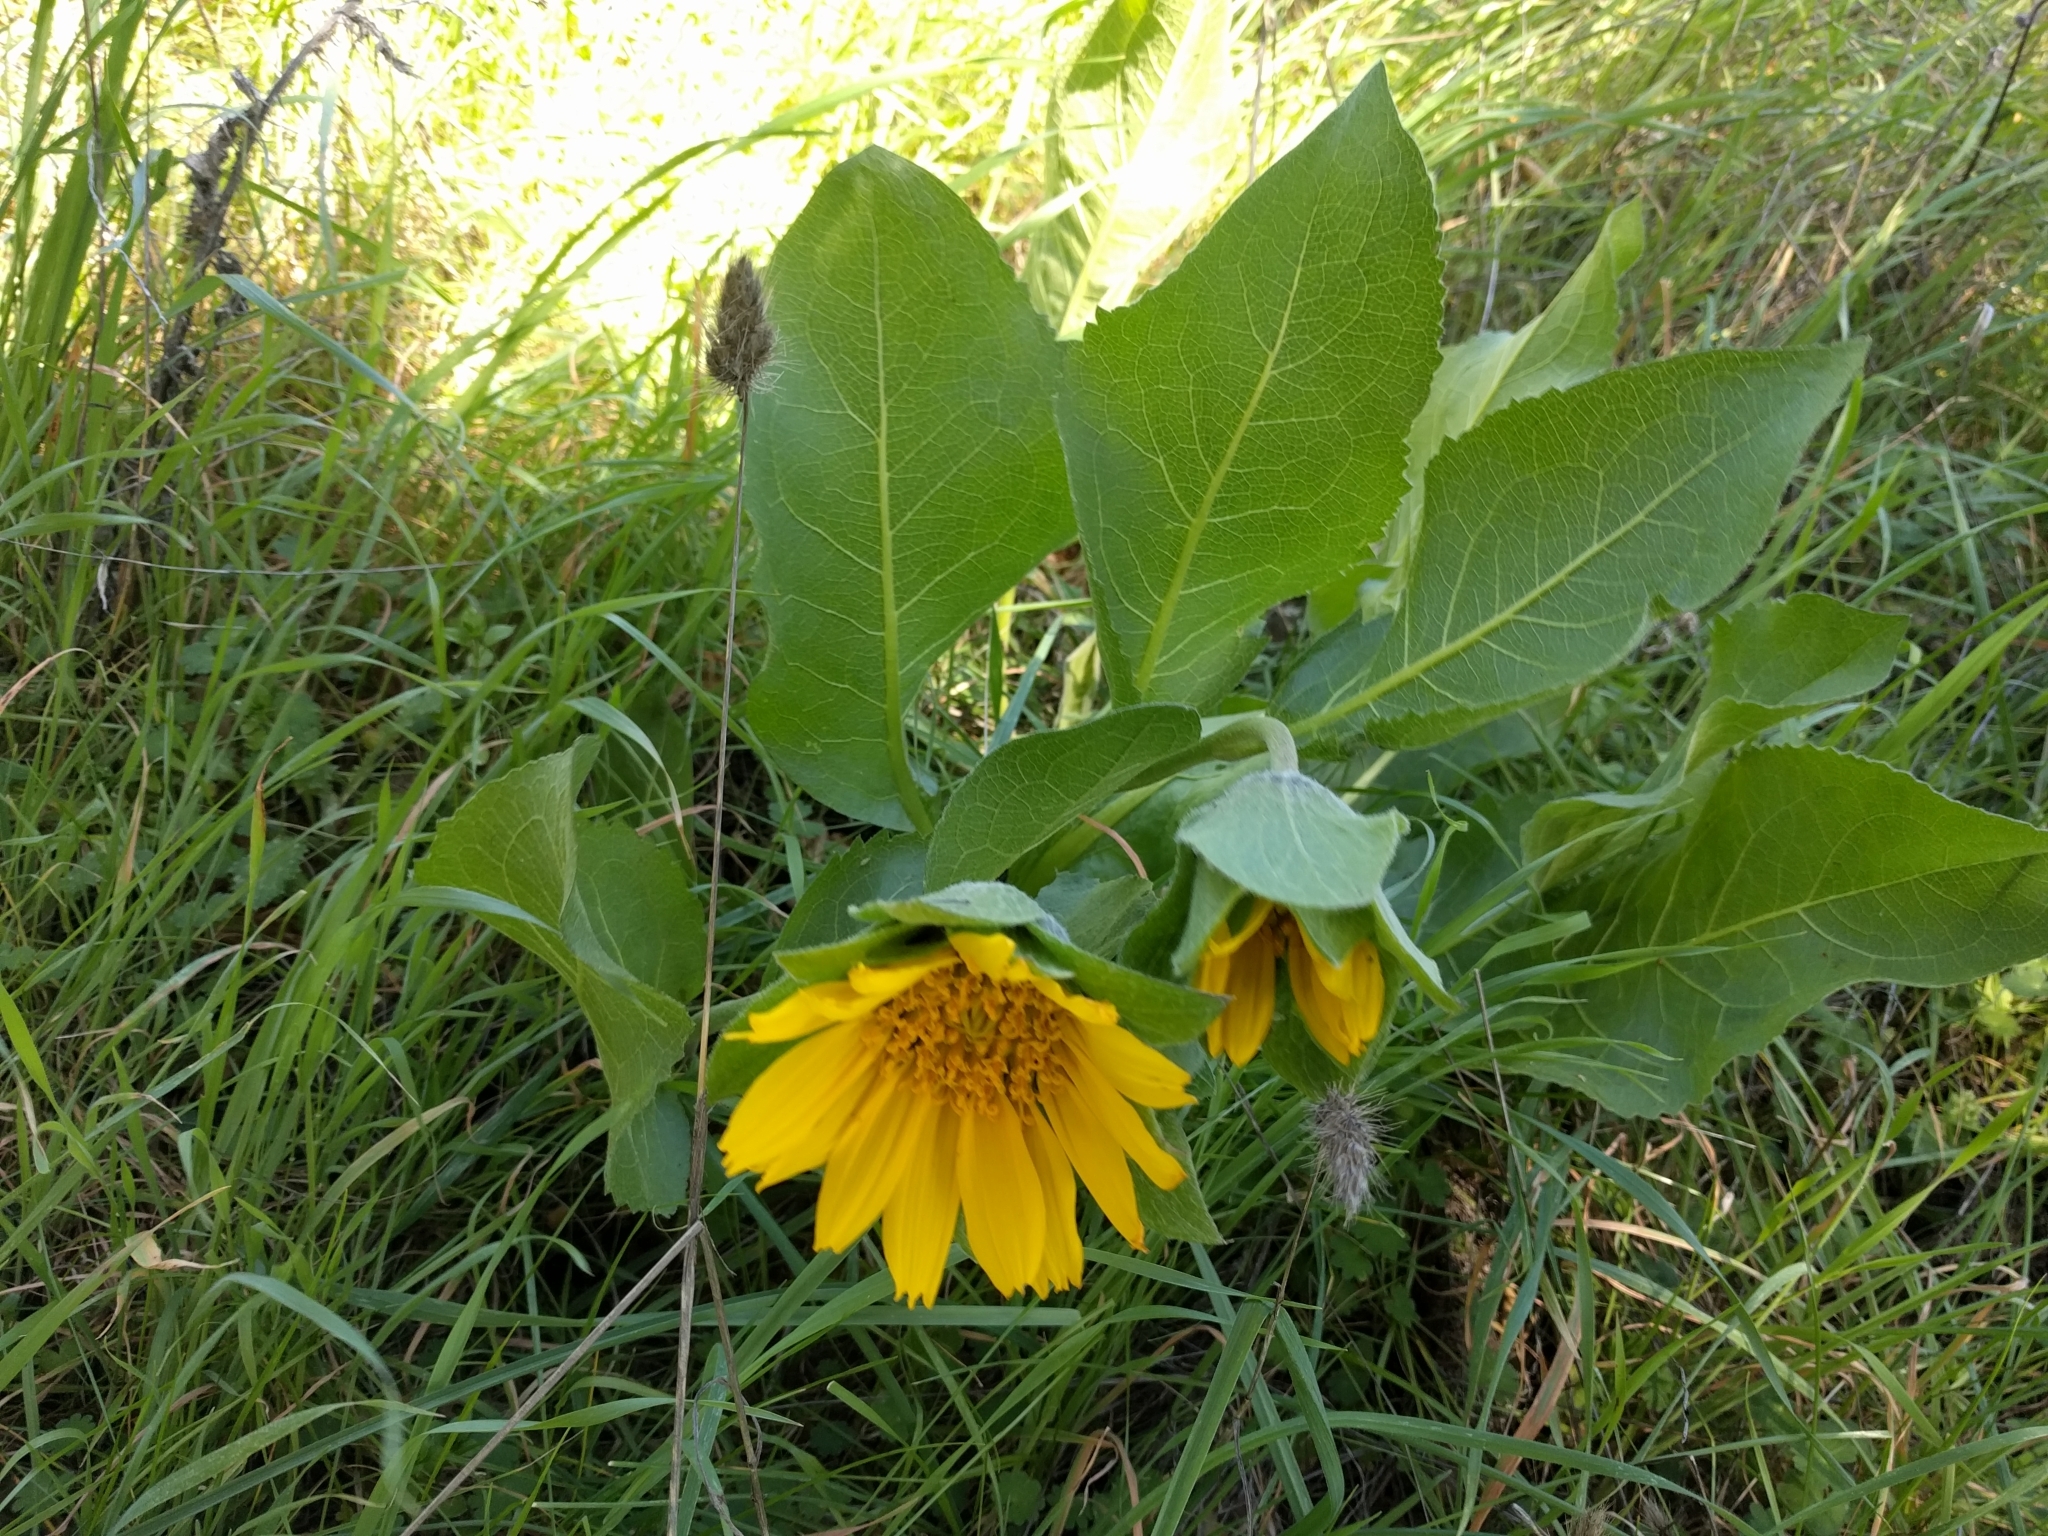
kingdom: Plantae
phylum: Tracheophyta
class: Magnoliopsida
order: Asterales
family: Asteraceae
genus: Wyethia
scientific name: Wyethia glabra
